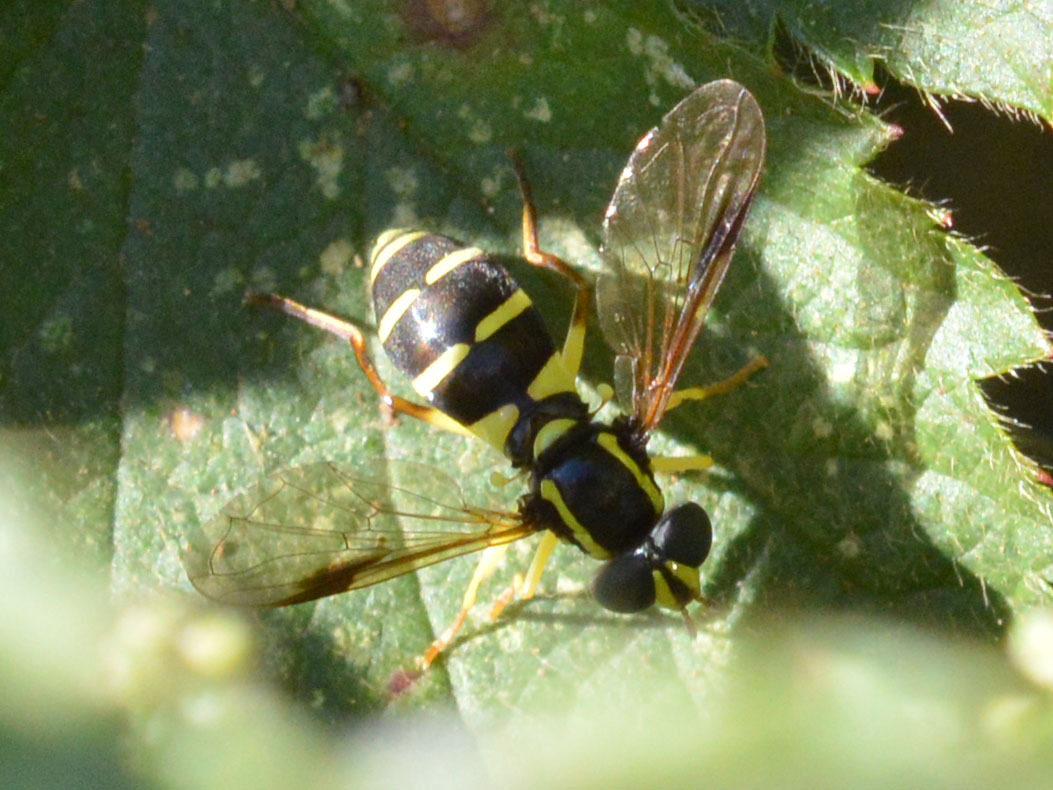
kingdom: Animalia
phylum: Arthropoda
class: Insecta
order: Diptera
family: Syrphidae
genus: Philhelius
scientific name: Philhelius pedissequum
